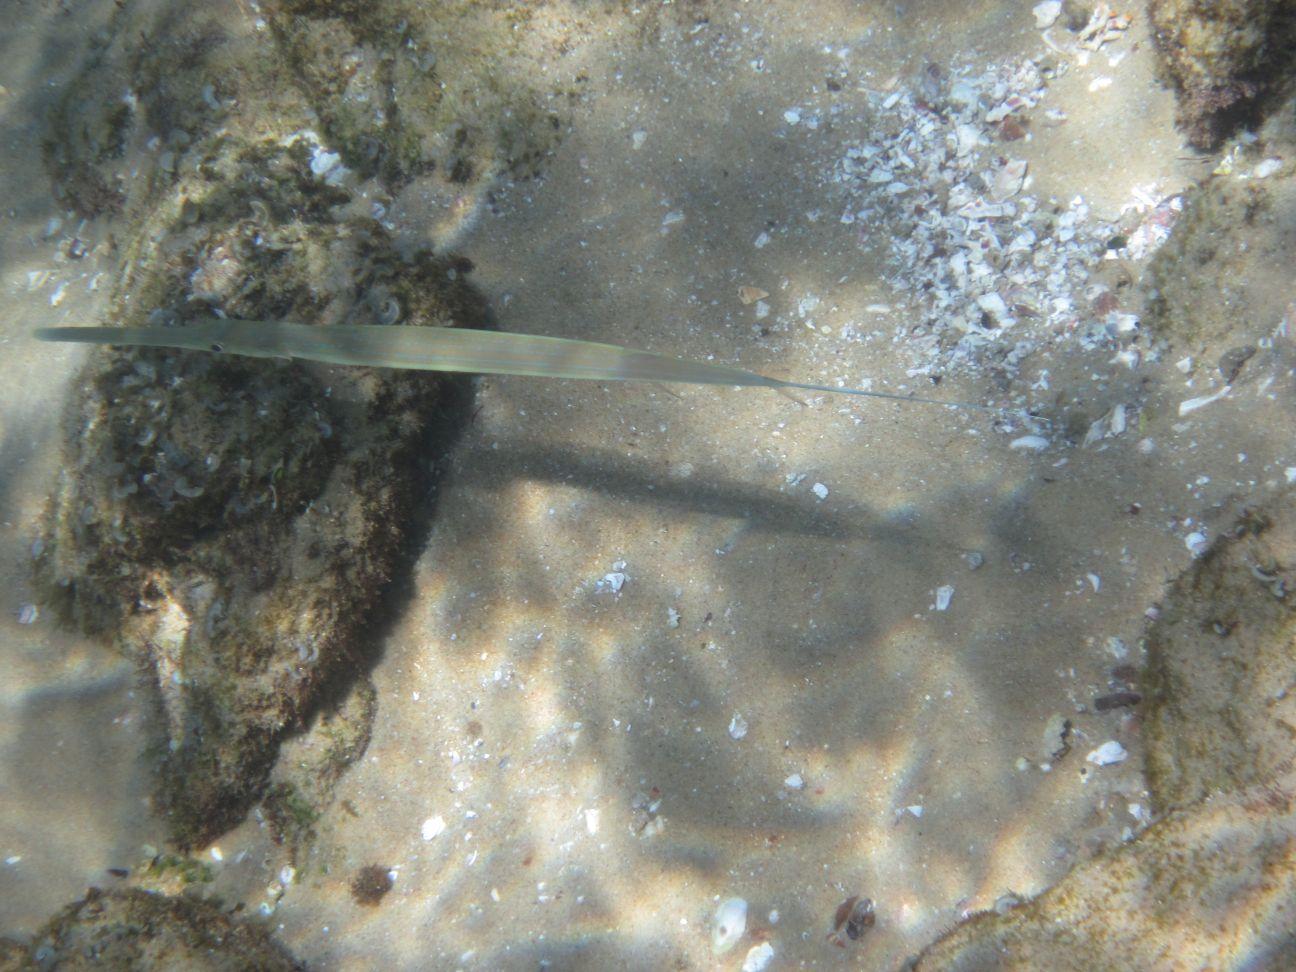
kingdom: Animalia
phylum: Chordata
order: Syngnathiformes
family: Fistulariidae
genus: Fistularia
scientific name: Fistularia commersonii
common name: Bluespotted cornetfish
